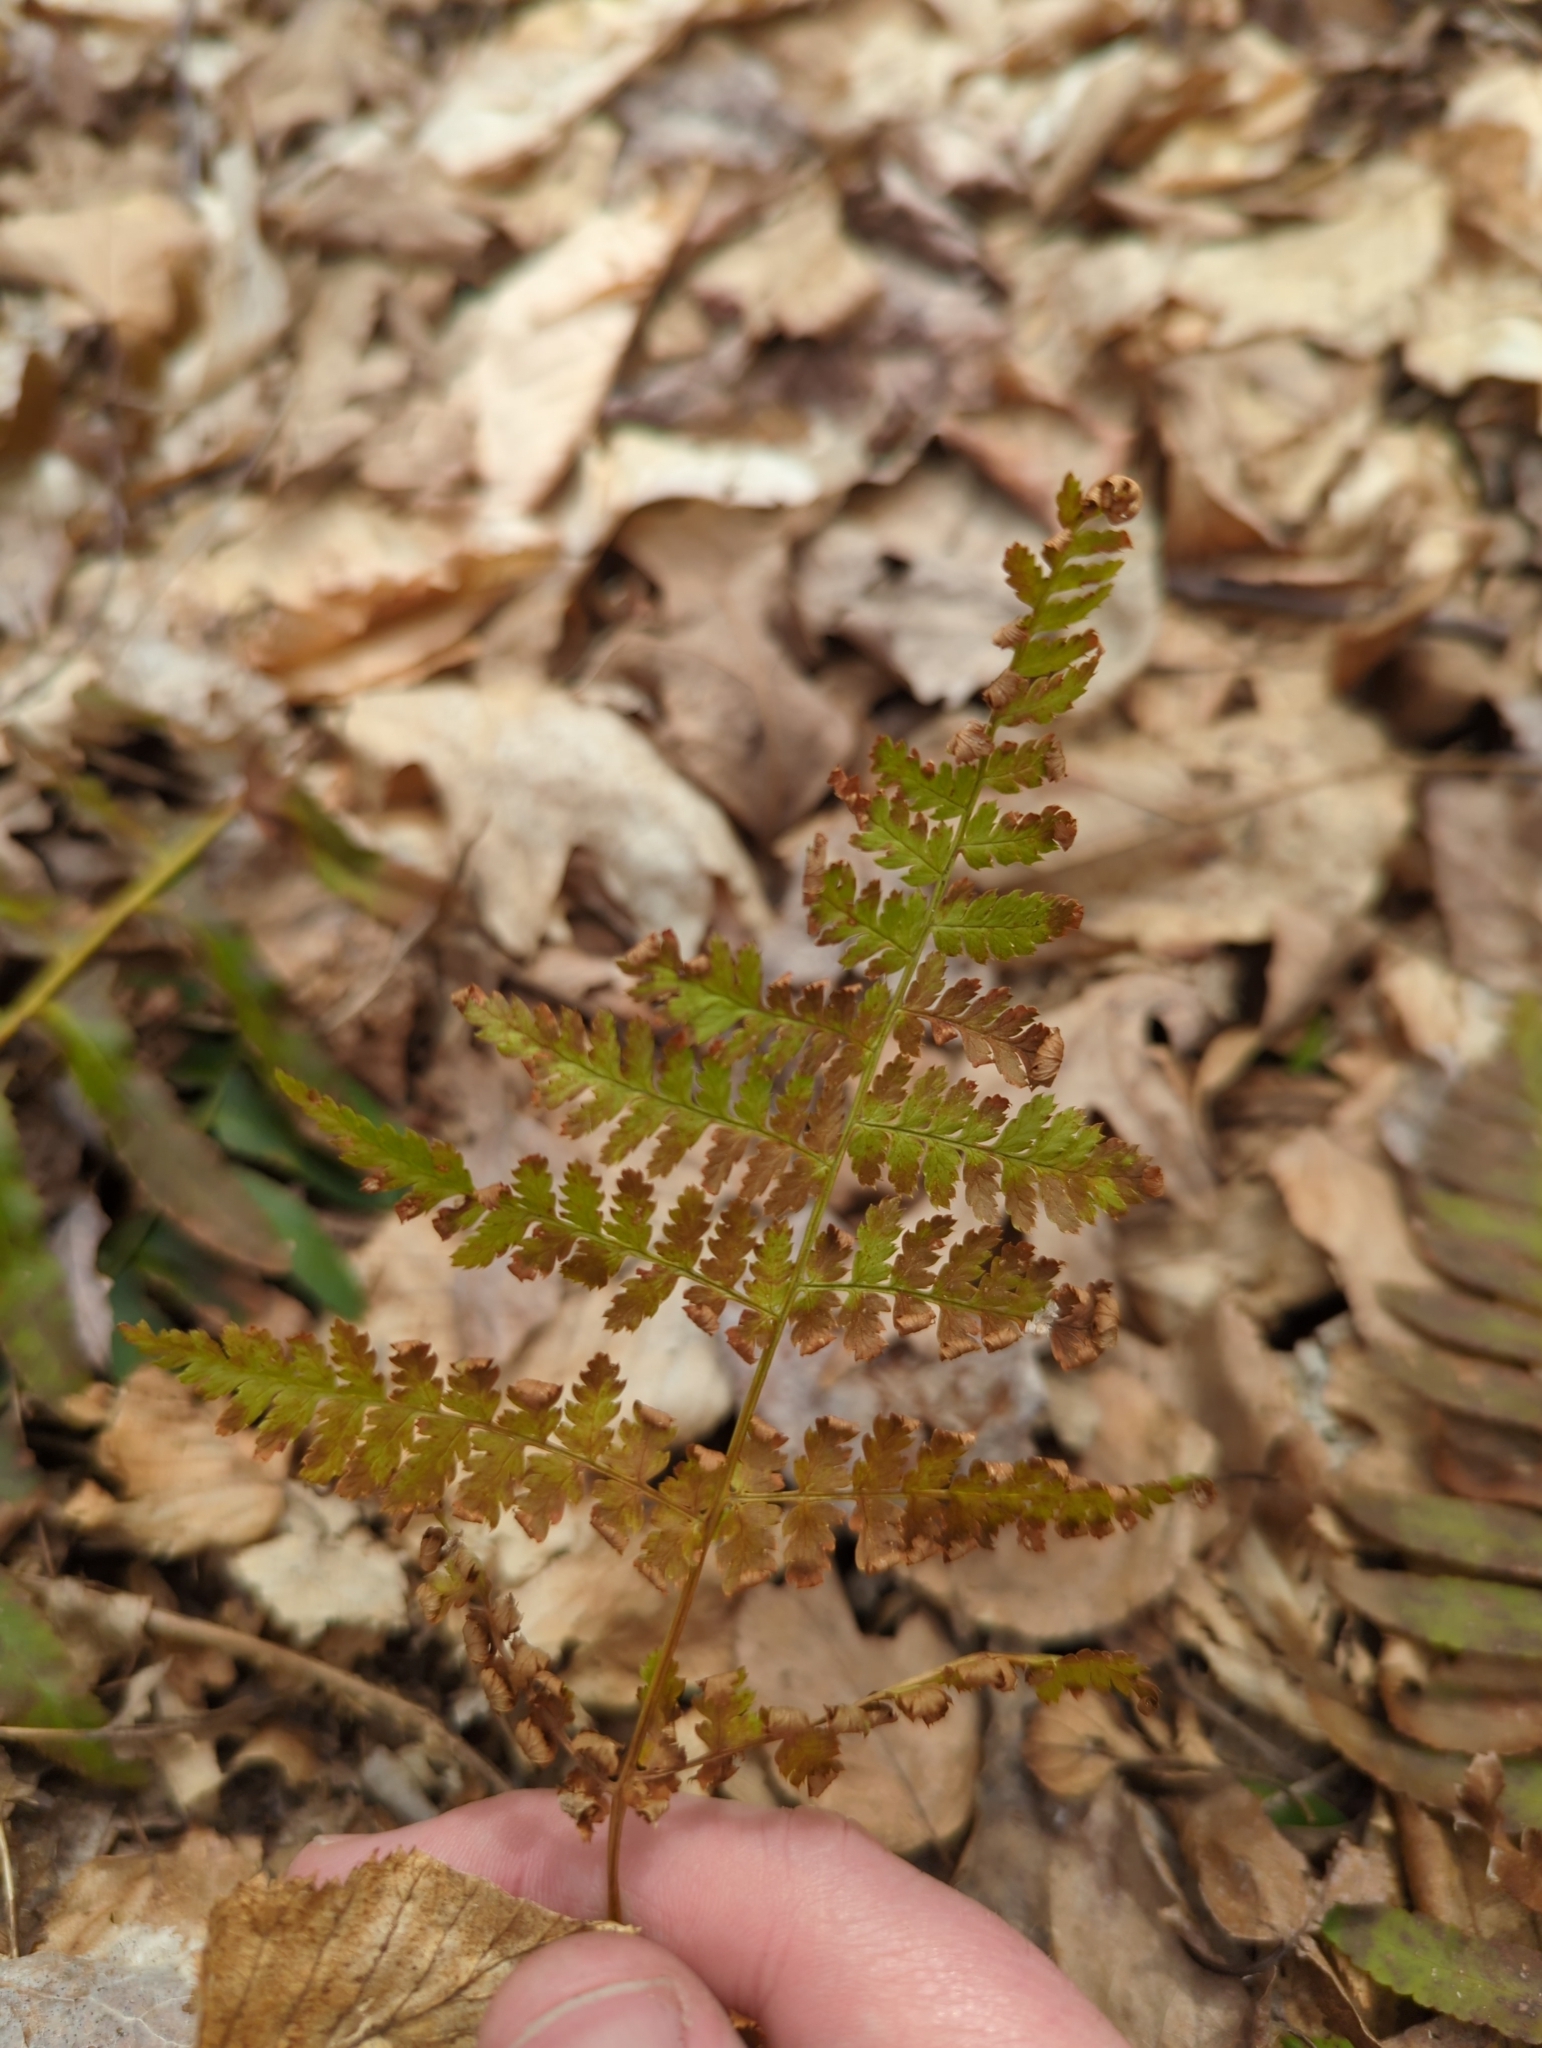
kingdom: Plantae
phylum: Tracheophyta
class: Polypodiopsida
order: Polypodiales
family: Dryopteridaceae
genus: Dryopteris
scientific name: Dryopteris intermedia
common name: Evergreen wood fern
